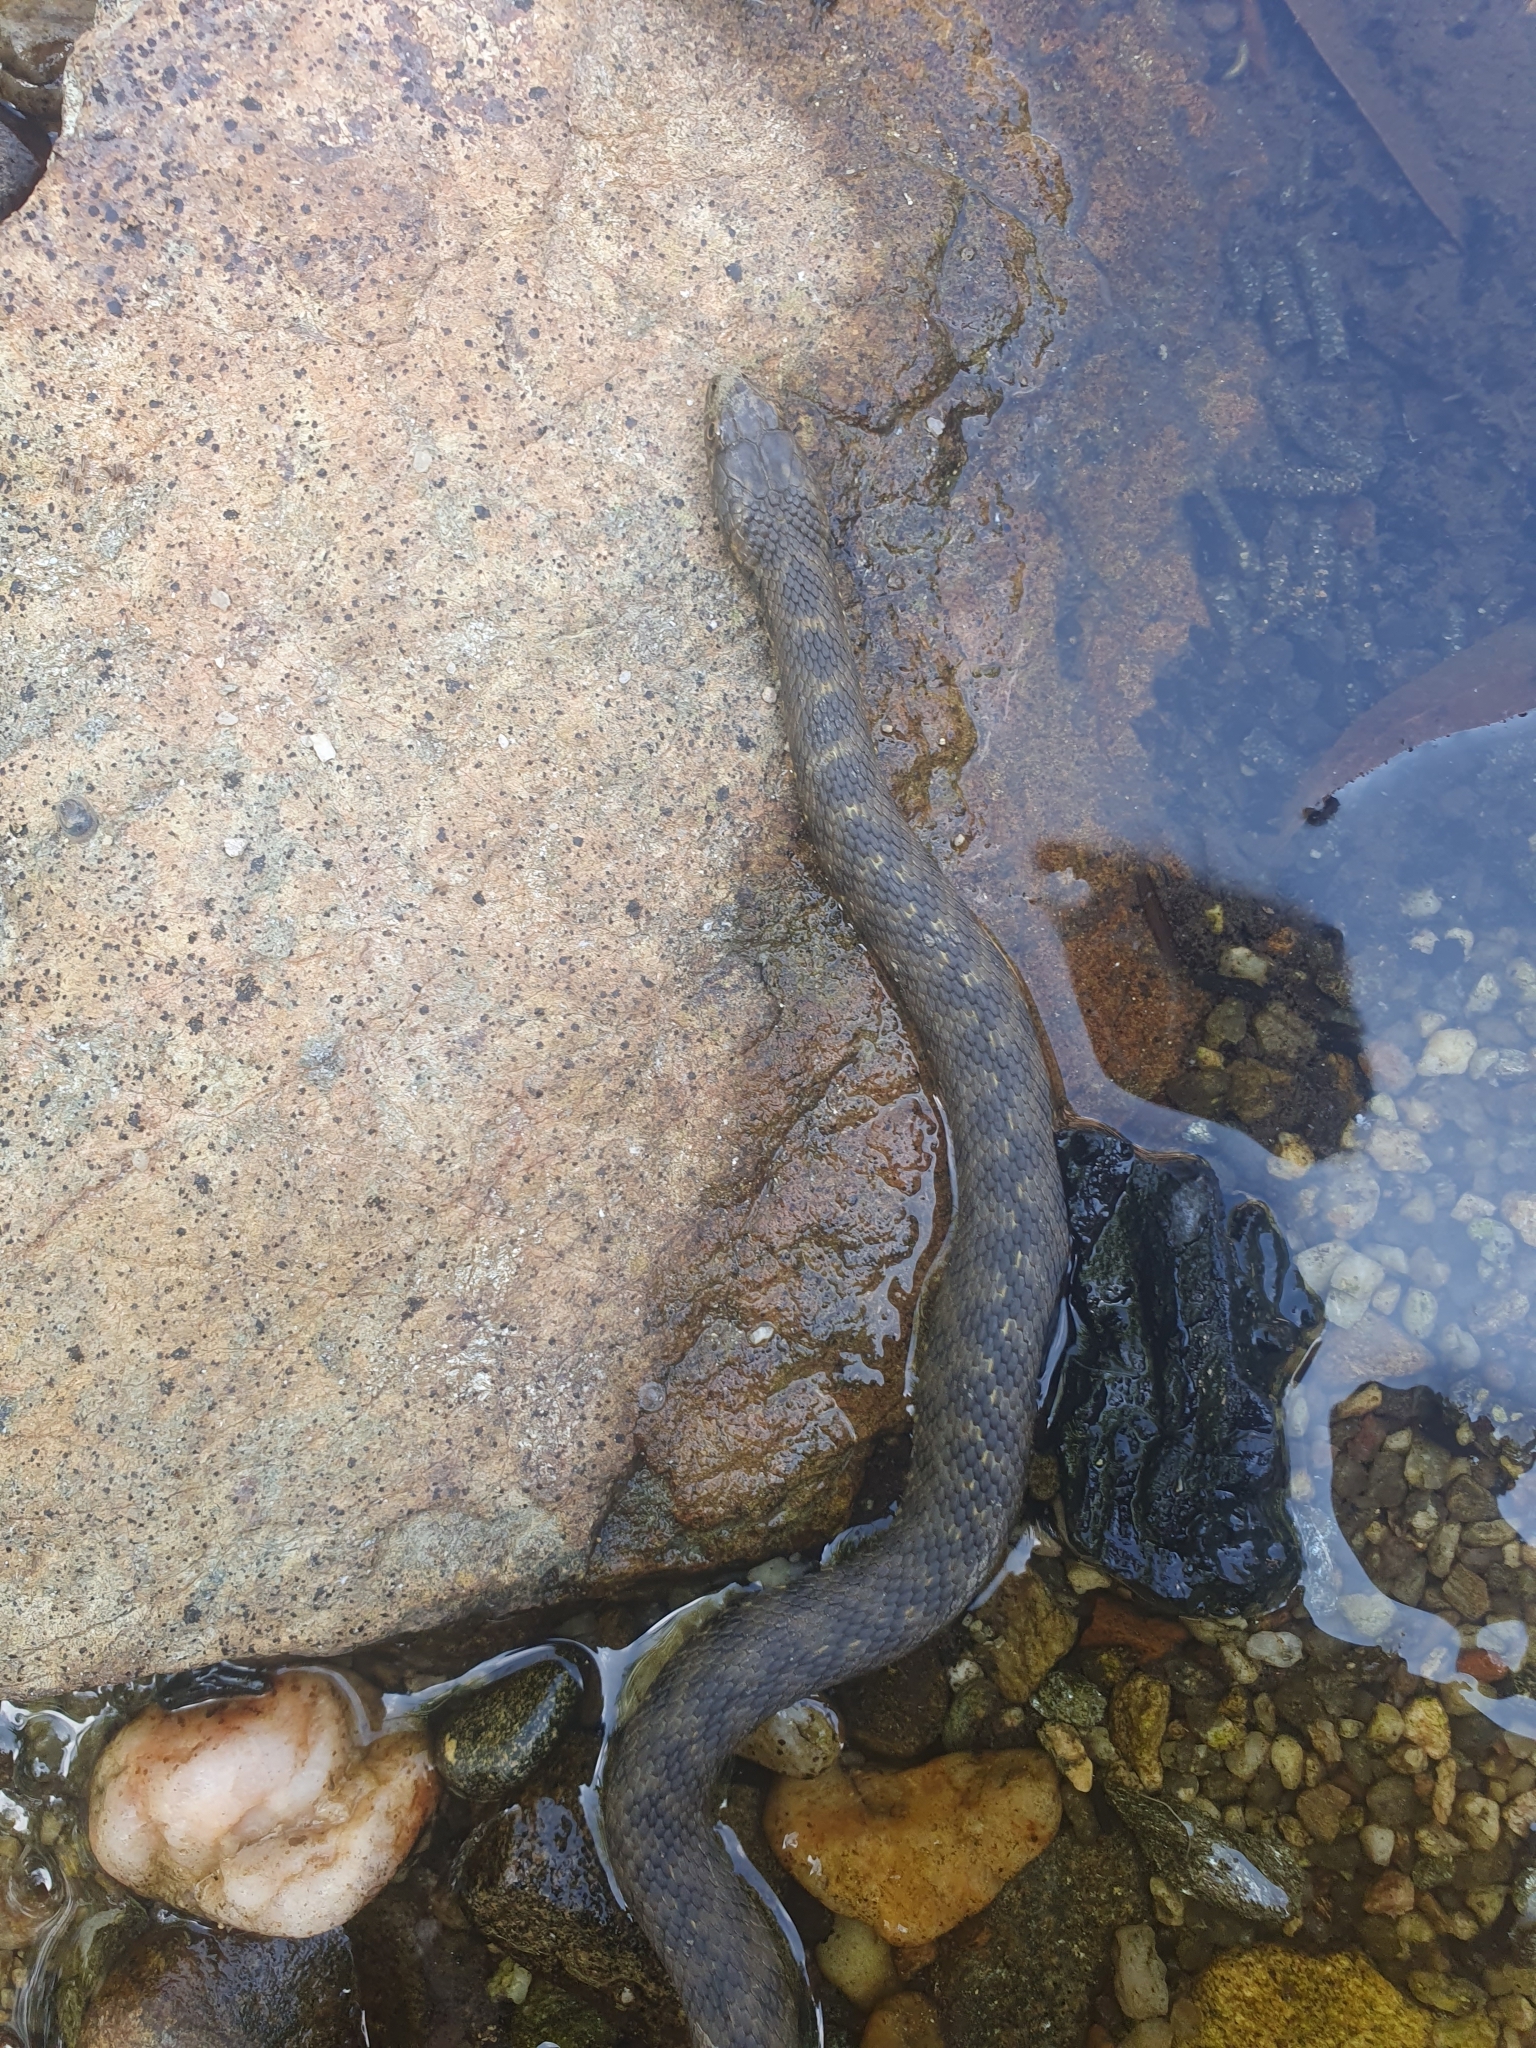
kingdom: Animalia
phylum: Chordata
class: Squamata
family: Colubridae
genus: Natrix
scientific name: Natrix maura
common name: Viperine water snake
